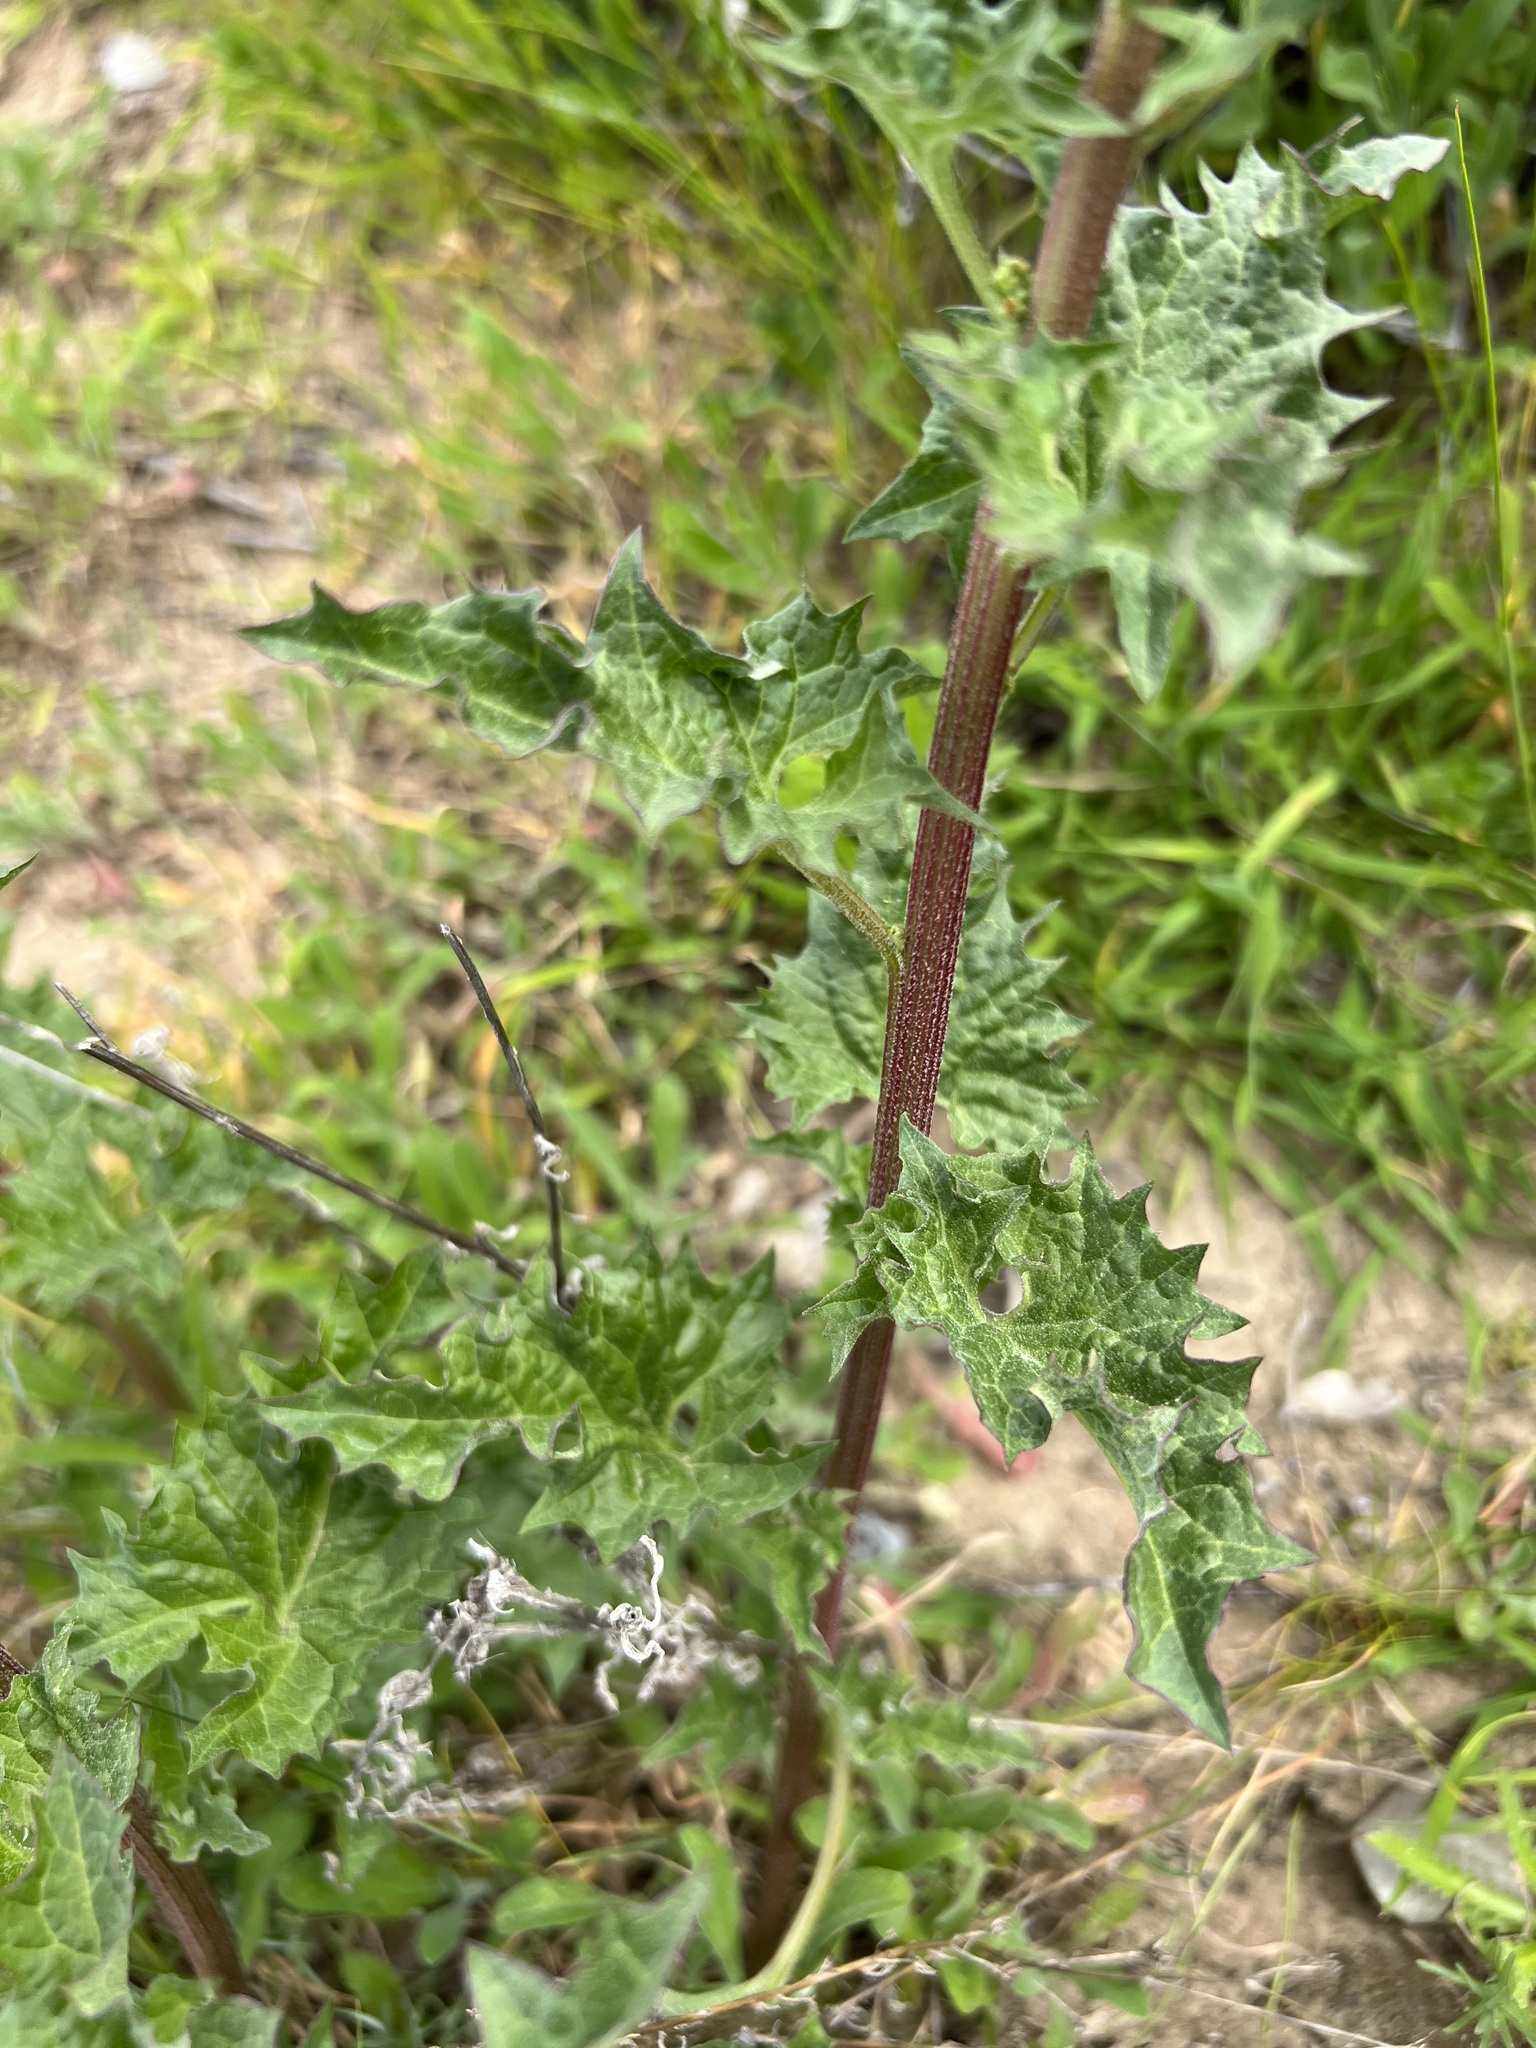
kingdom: Plantae
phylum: Tracheophyta
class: Magnoliopsida
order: Caryophyllales
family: Amaranthaceae
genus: Blitum
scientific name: Blitum californicum
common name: California goosefoot
